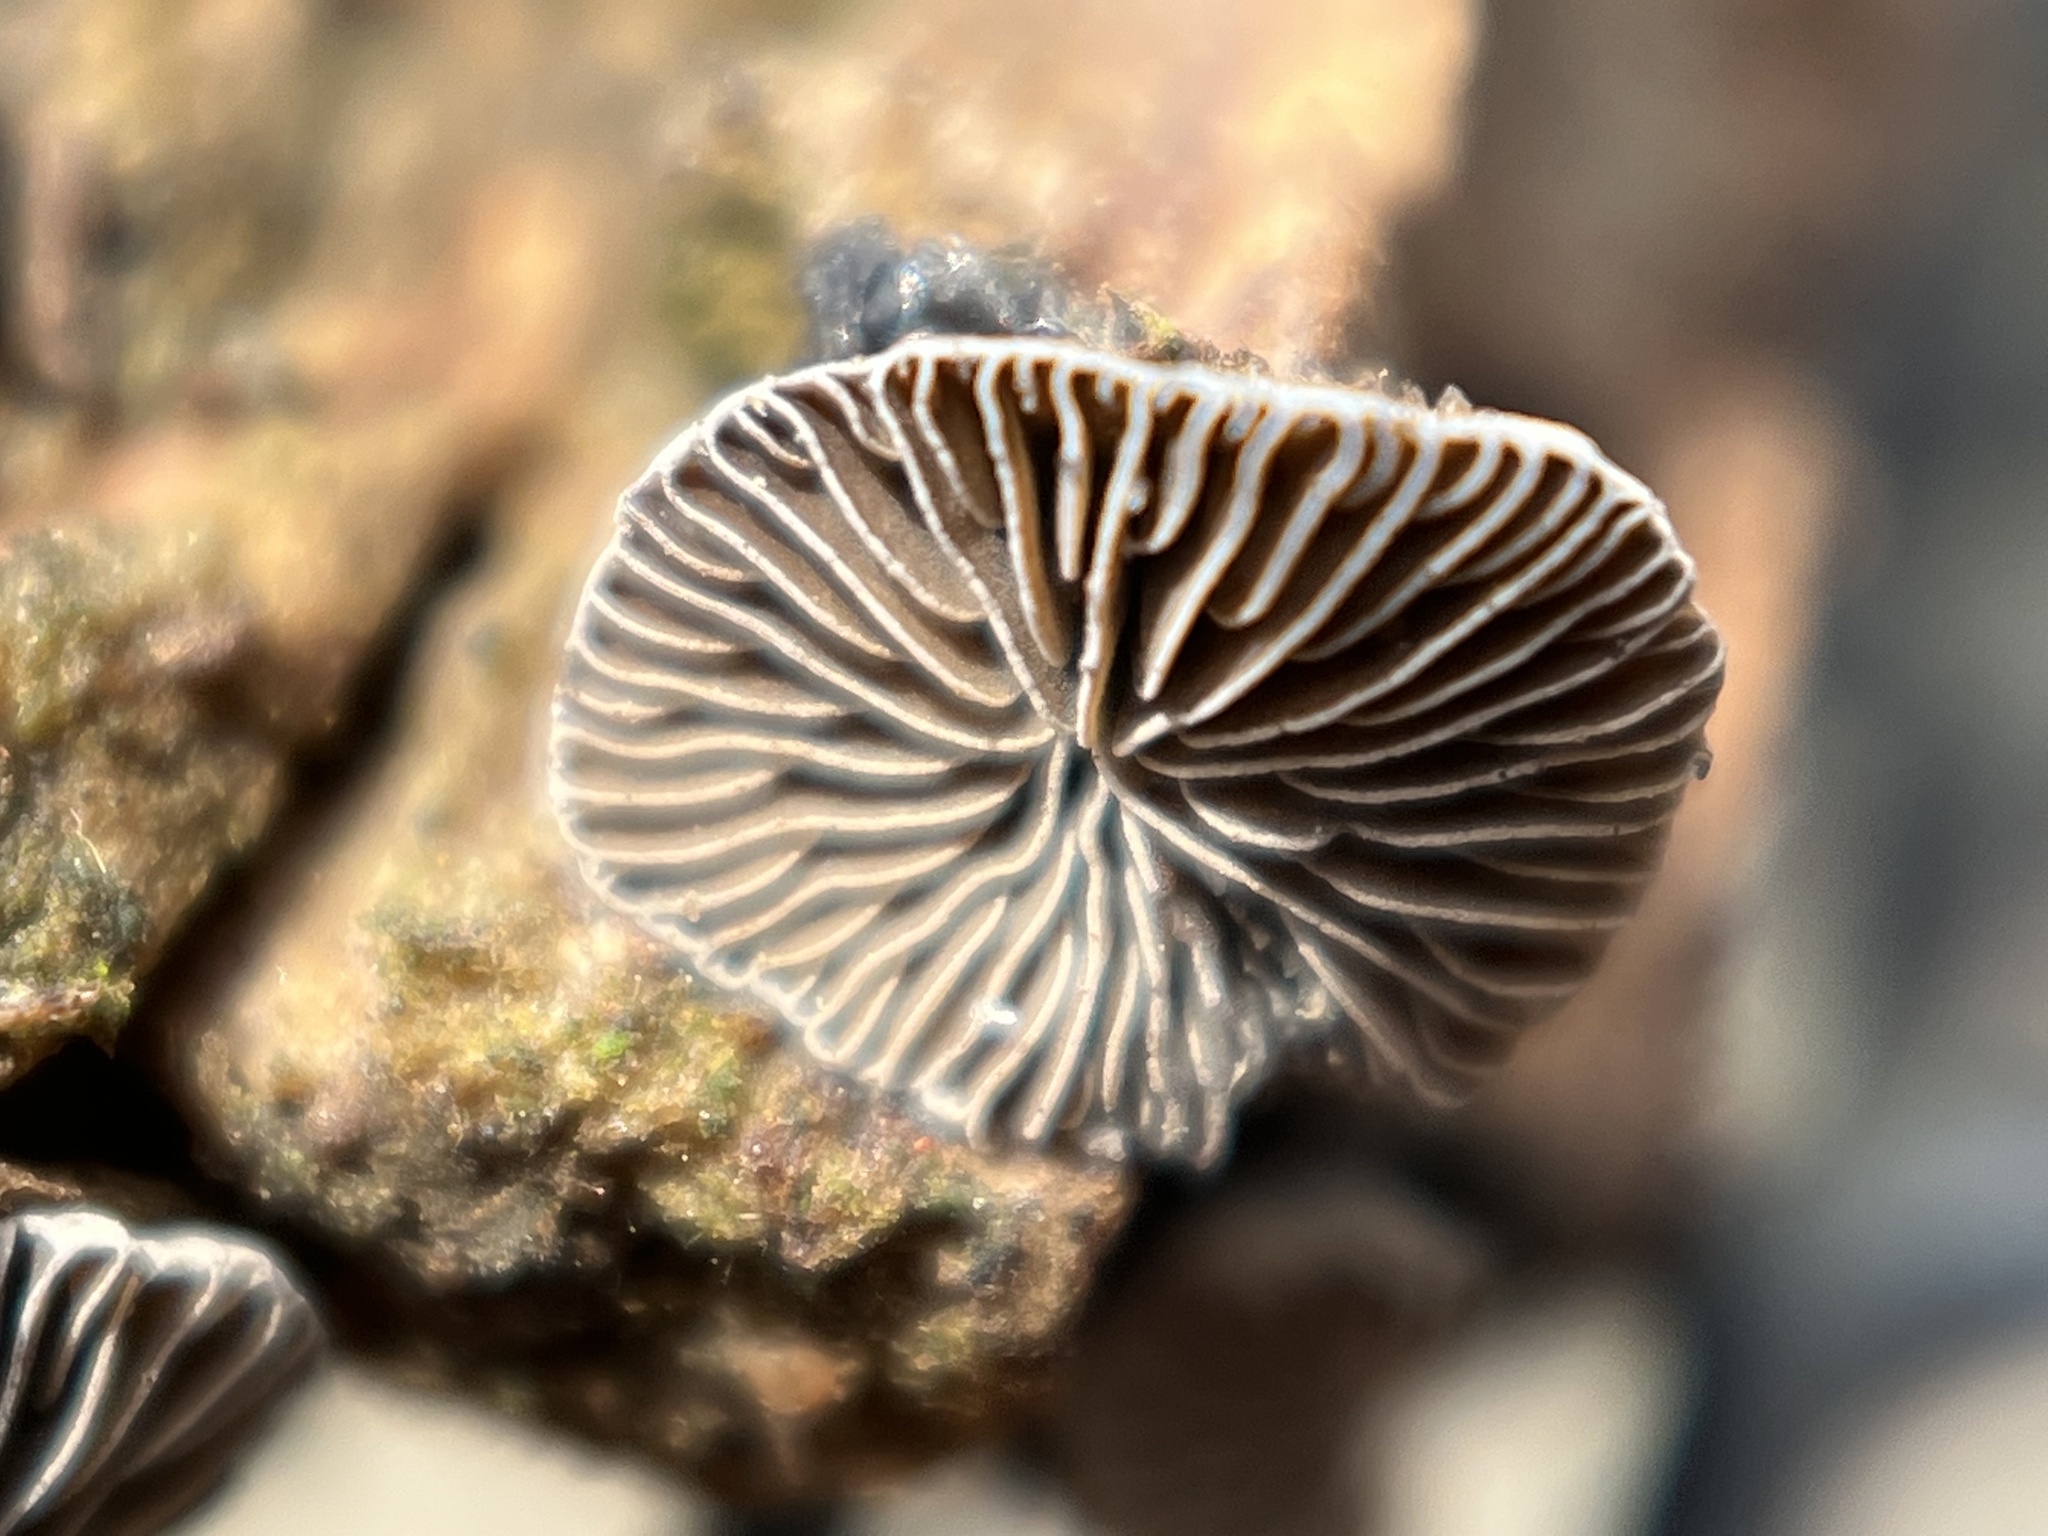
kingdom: Fungi
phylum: Basidiomycota
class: Agaricomycetes
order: Agaricales
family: Pleurotaceae
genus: Resupinatus
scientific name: Resupinatus applicatus
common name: Smoked oysterling
